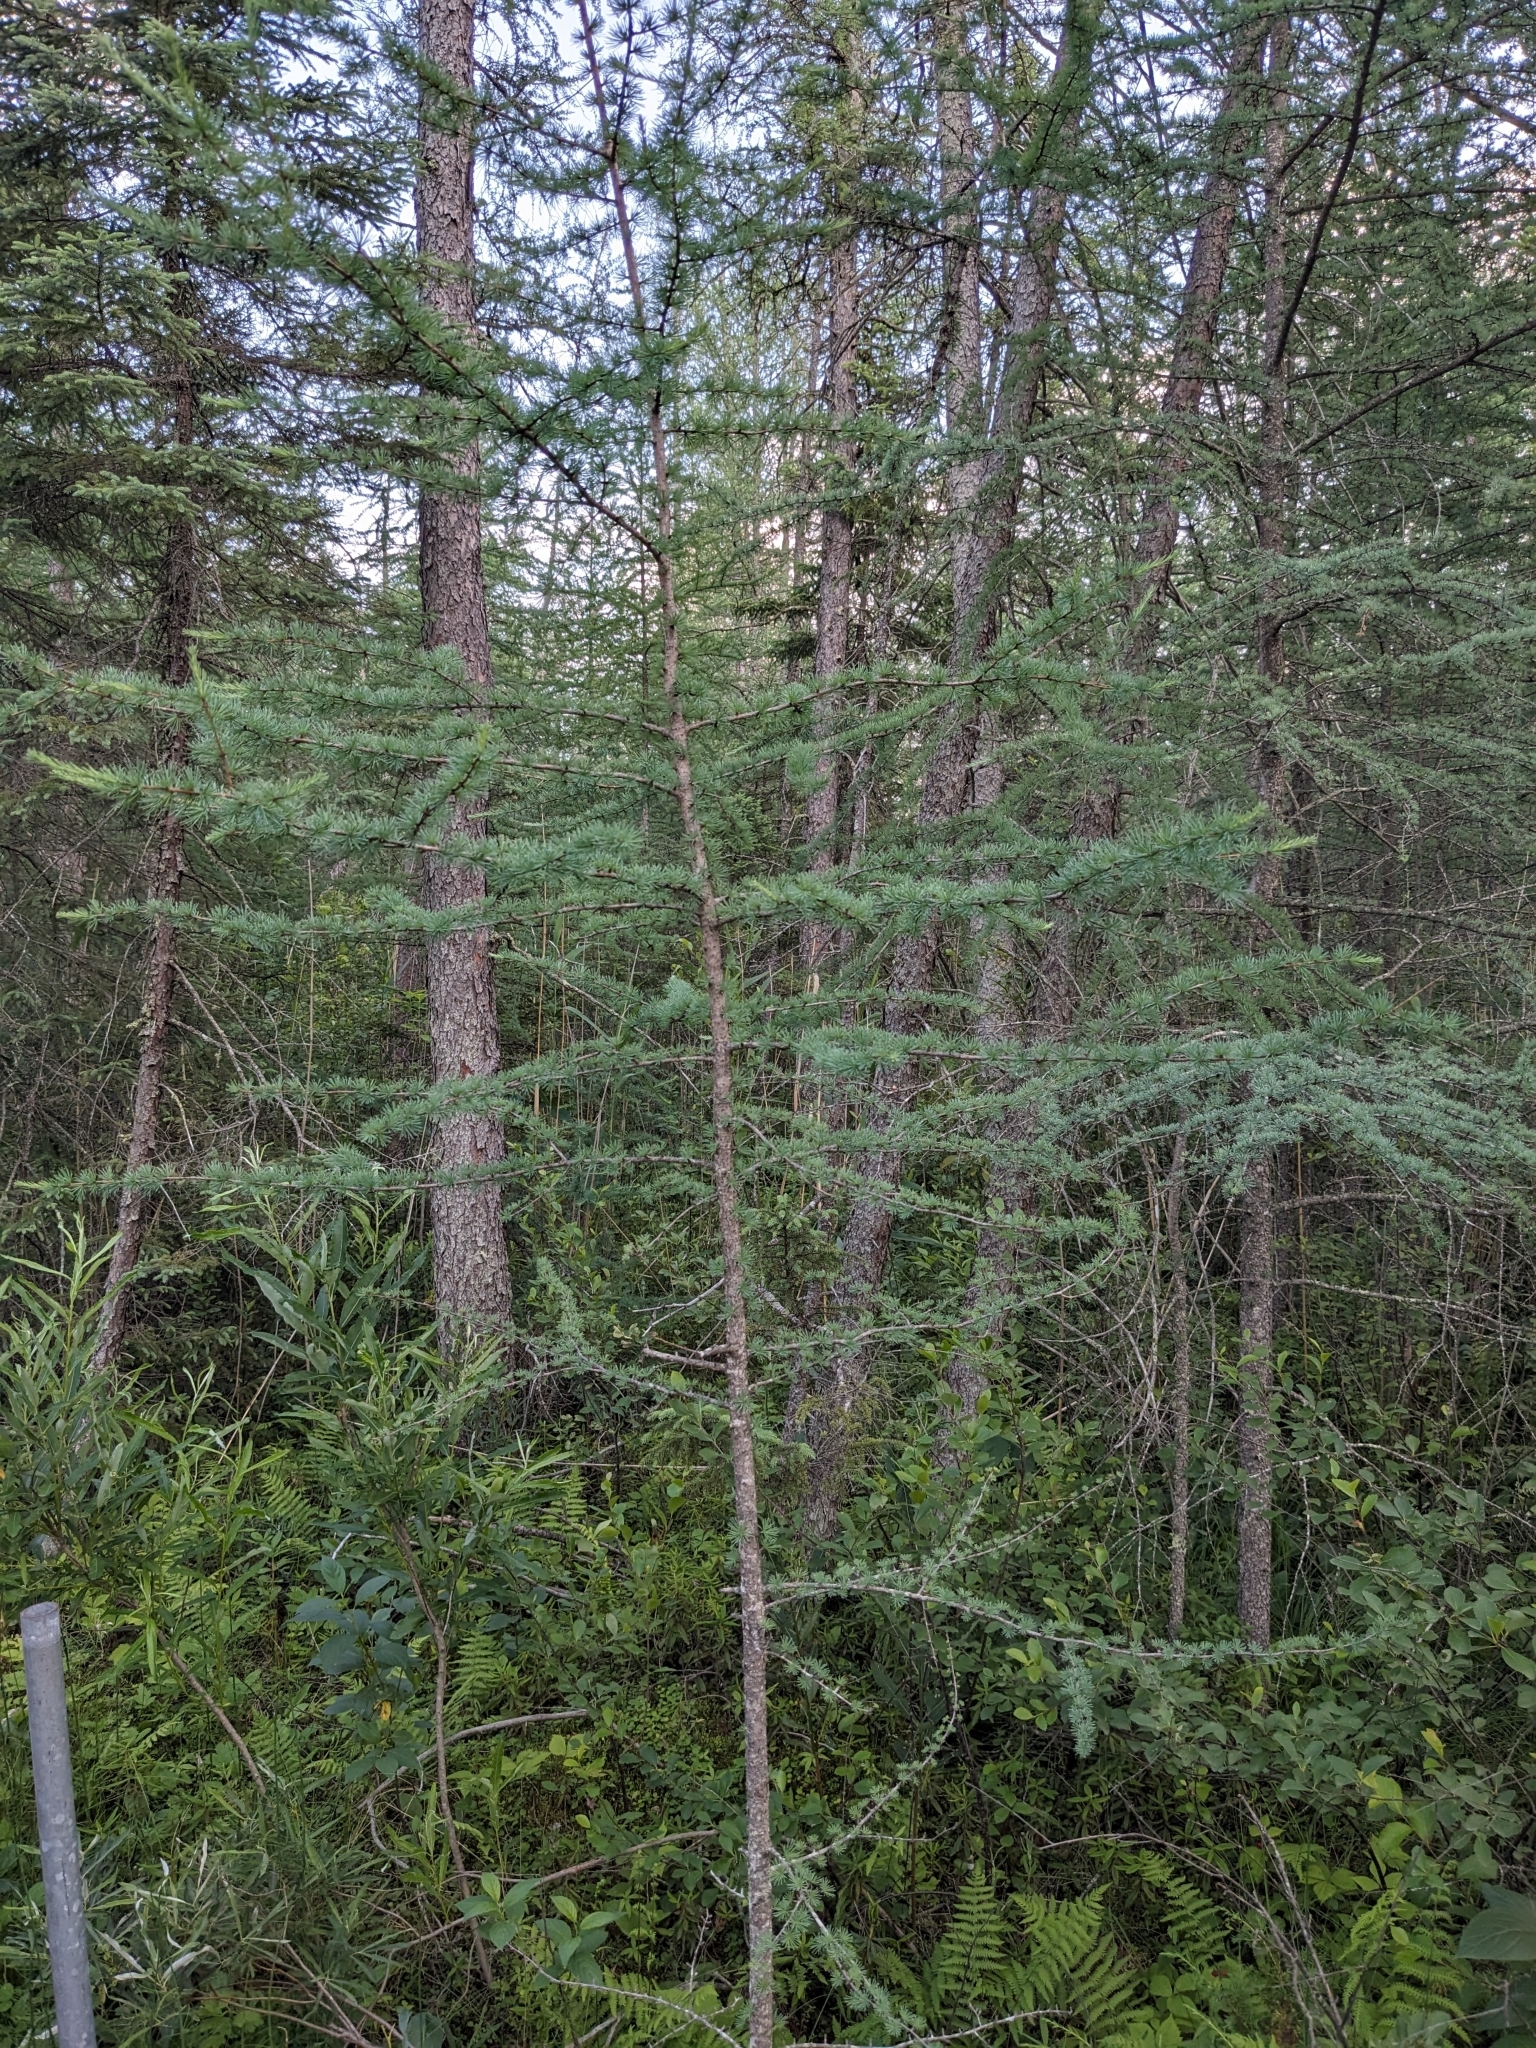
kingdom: Plantae
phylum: Tracheophyta
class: Pinopsida
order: Pinales
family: Pinaceae
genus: Larix
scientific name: Larix laricina
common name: American larch
